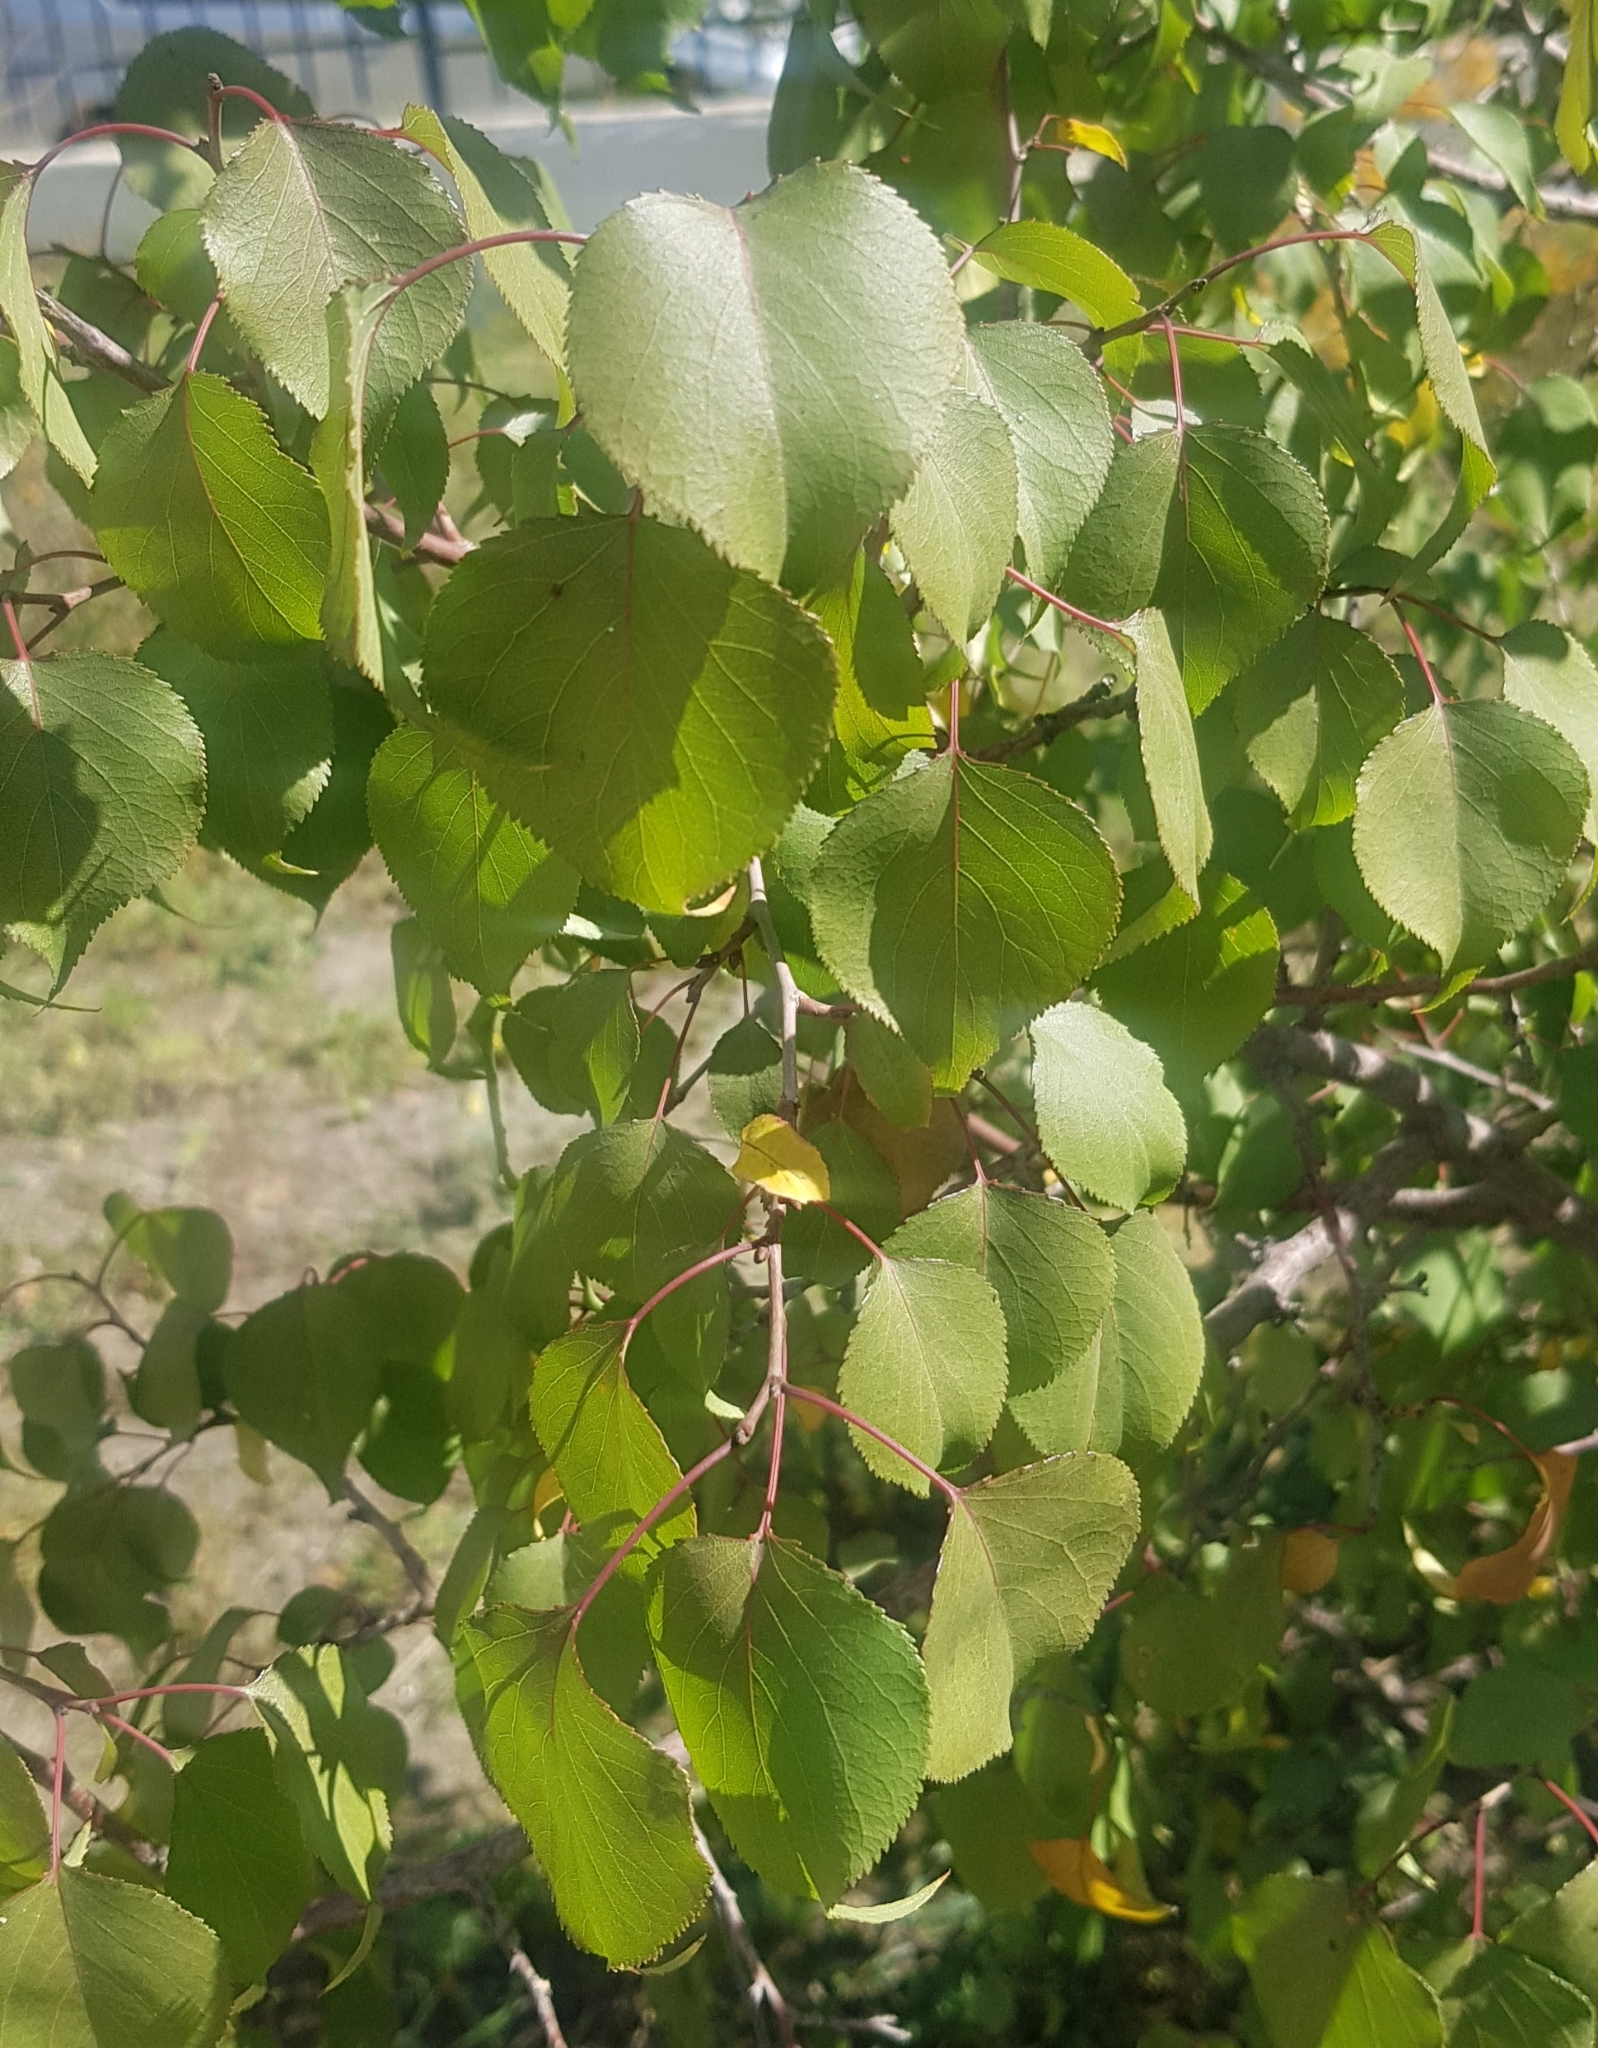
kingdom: Plantae
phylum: Tracheophyta
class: Magnoliopsida
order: Rosales
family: Rosaceae
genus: Prunus
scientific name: Prunus armeniaca
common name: Apricot
